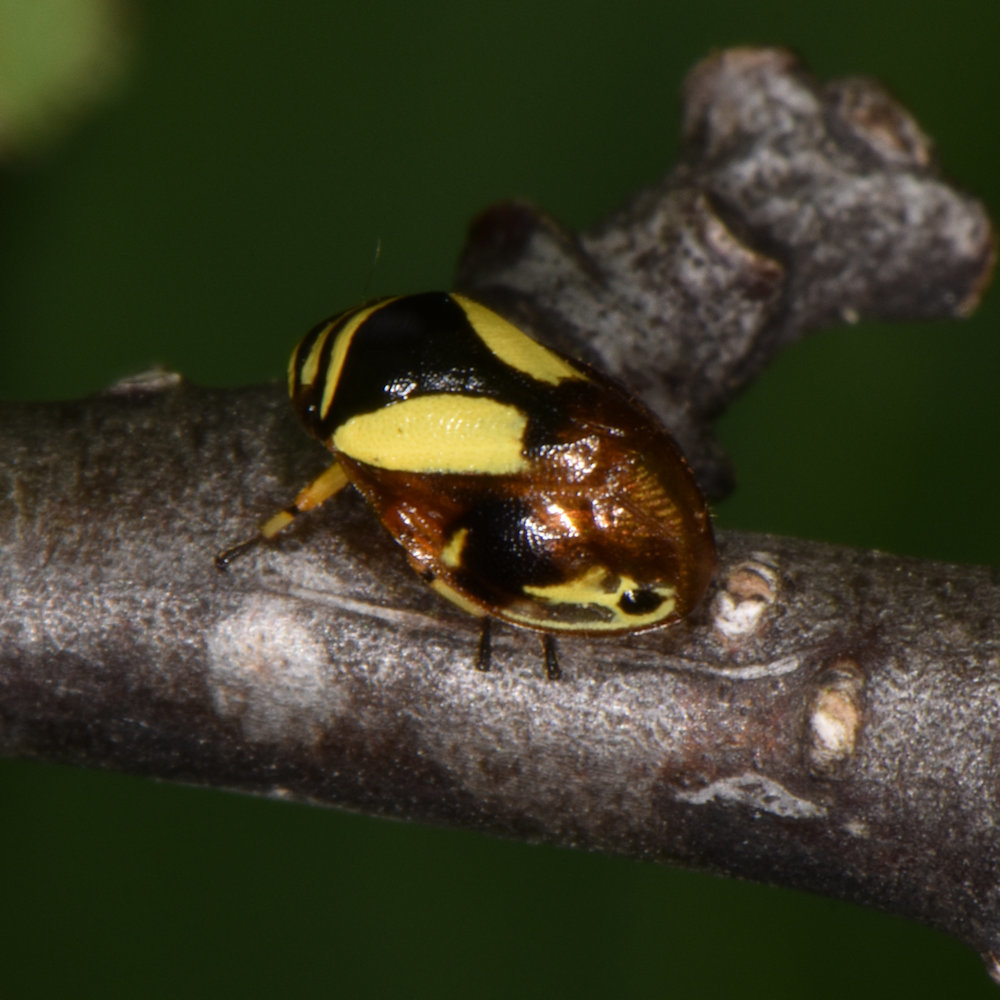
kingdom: Animalia
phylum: Arthropoda
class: Insecta
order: Hemiptera
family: Clastopteridae
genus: Clastoptera
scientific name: Clastoptera proteus
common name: Dogwood spittlebug
